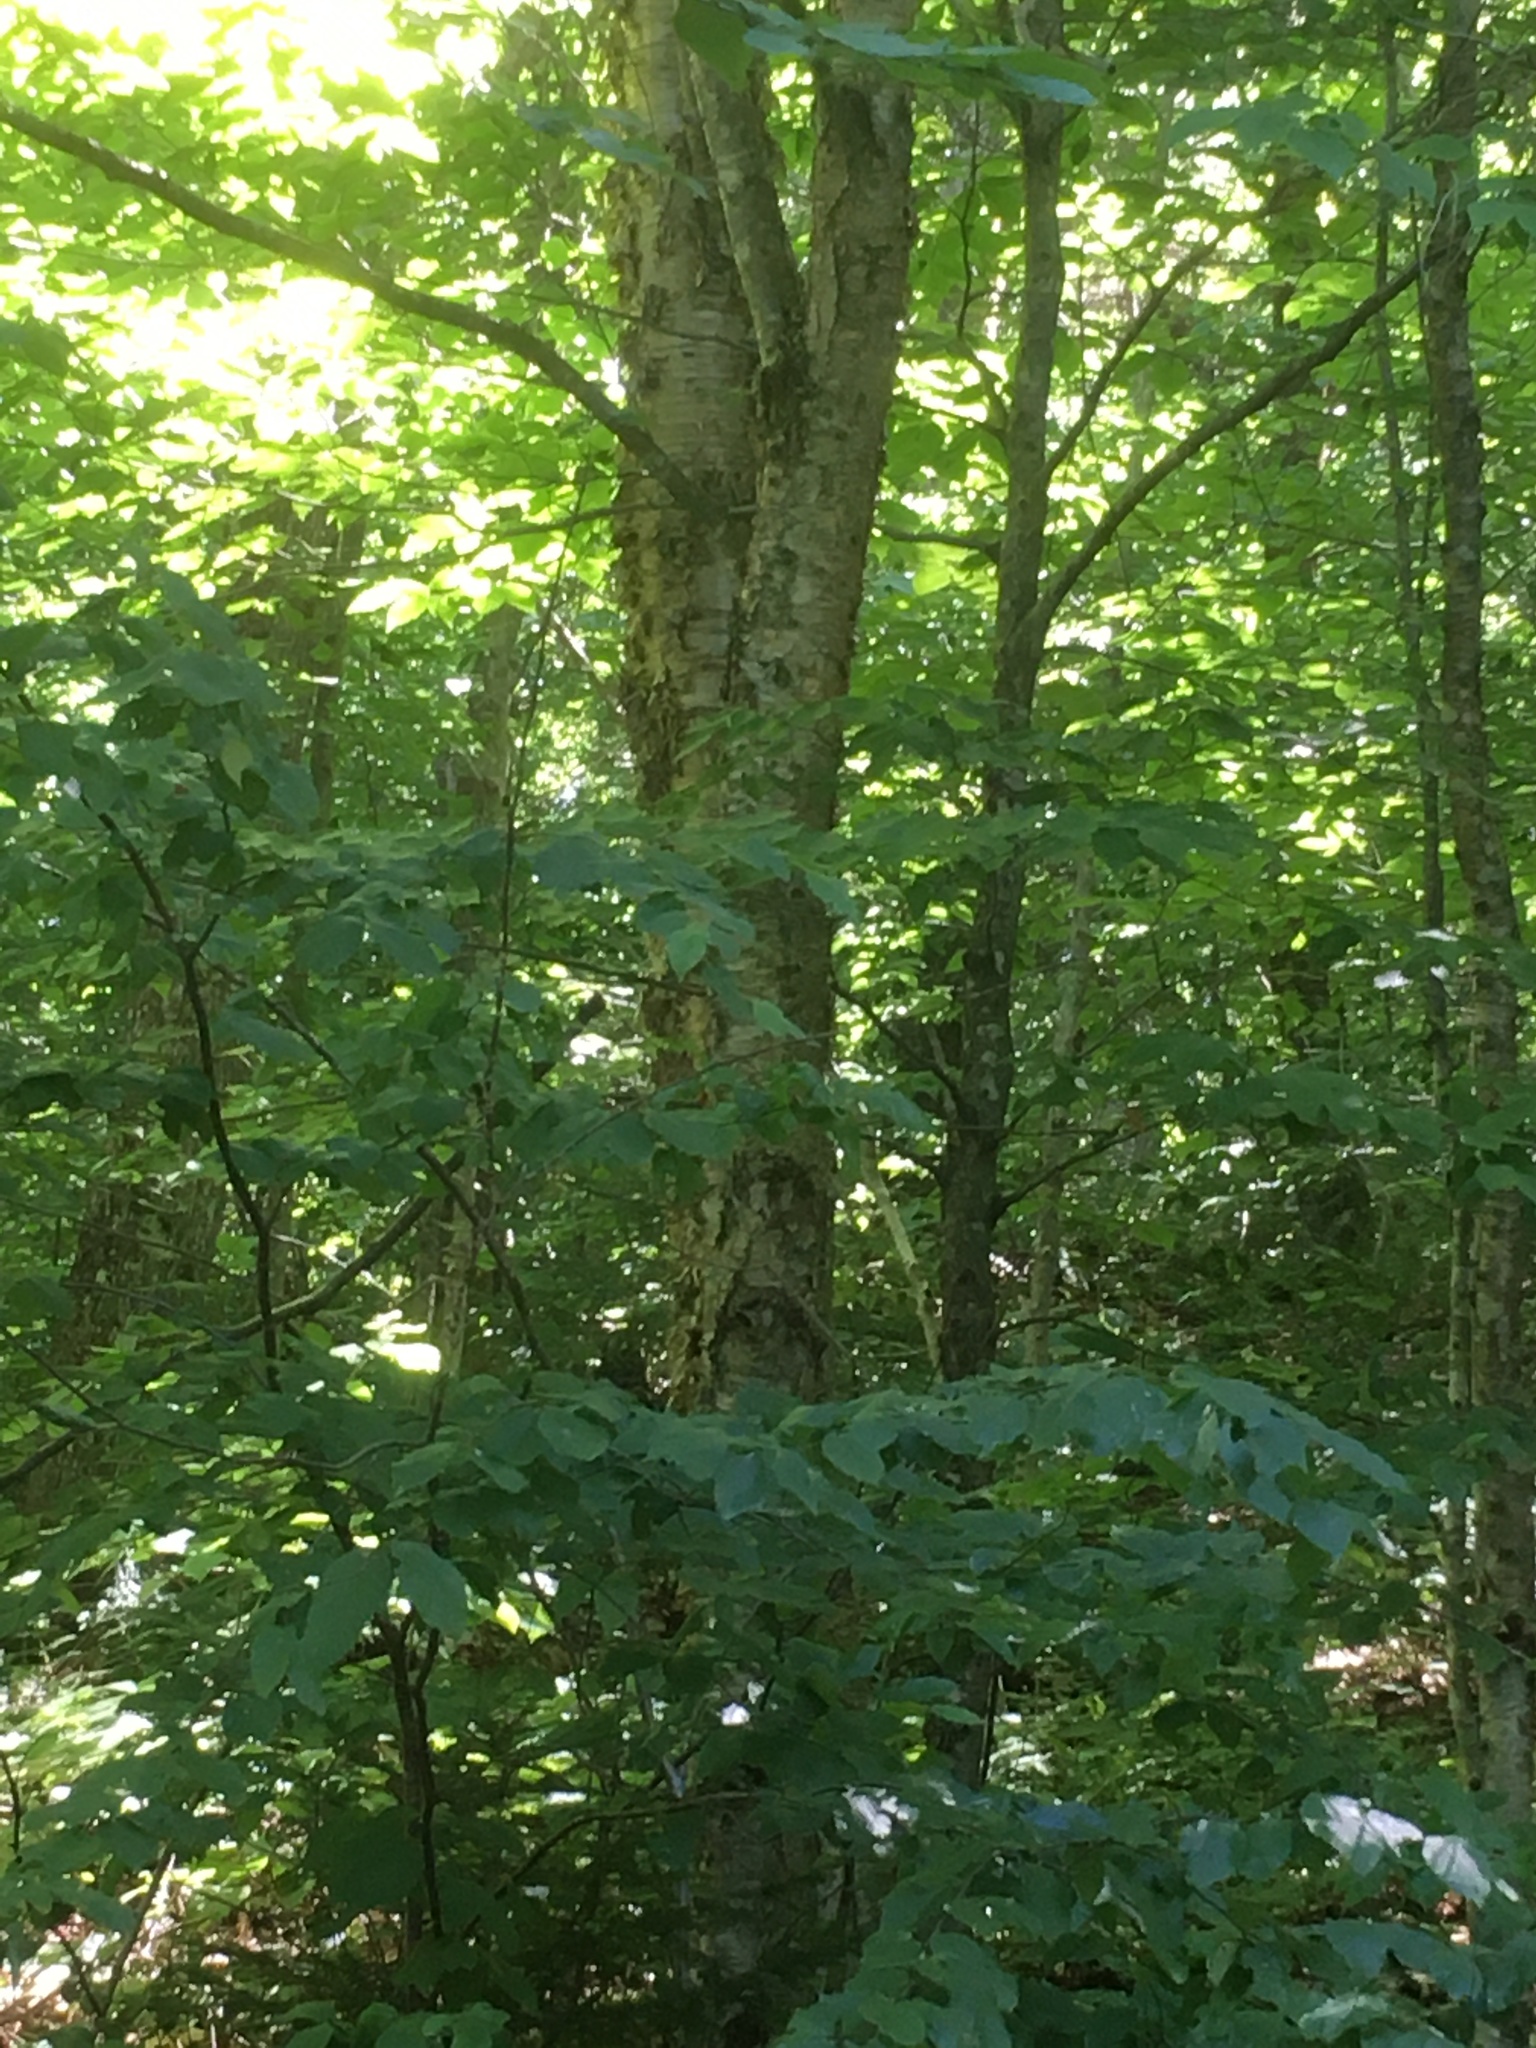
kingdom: Plantae
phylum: Tracheophyta
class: Magnoliopsida
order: Fagales
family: Betulaceae
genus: Betula
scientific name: Betula alleghaniensis
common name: Yellow birch
